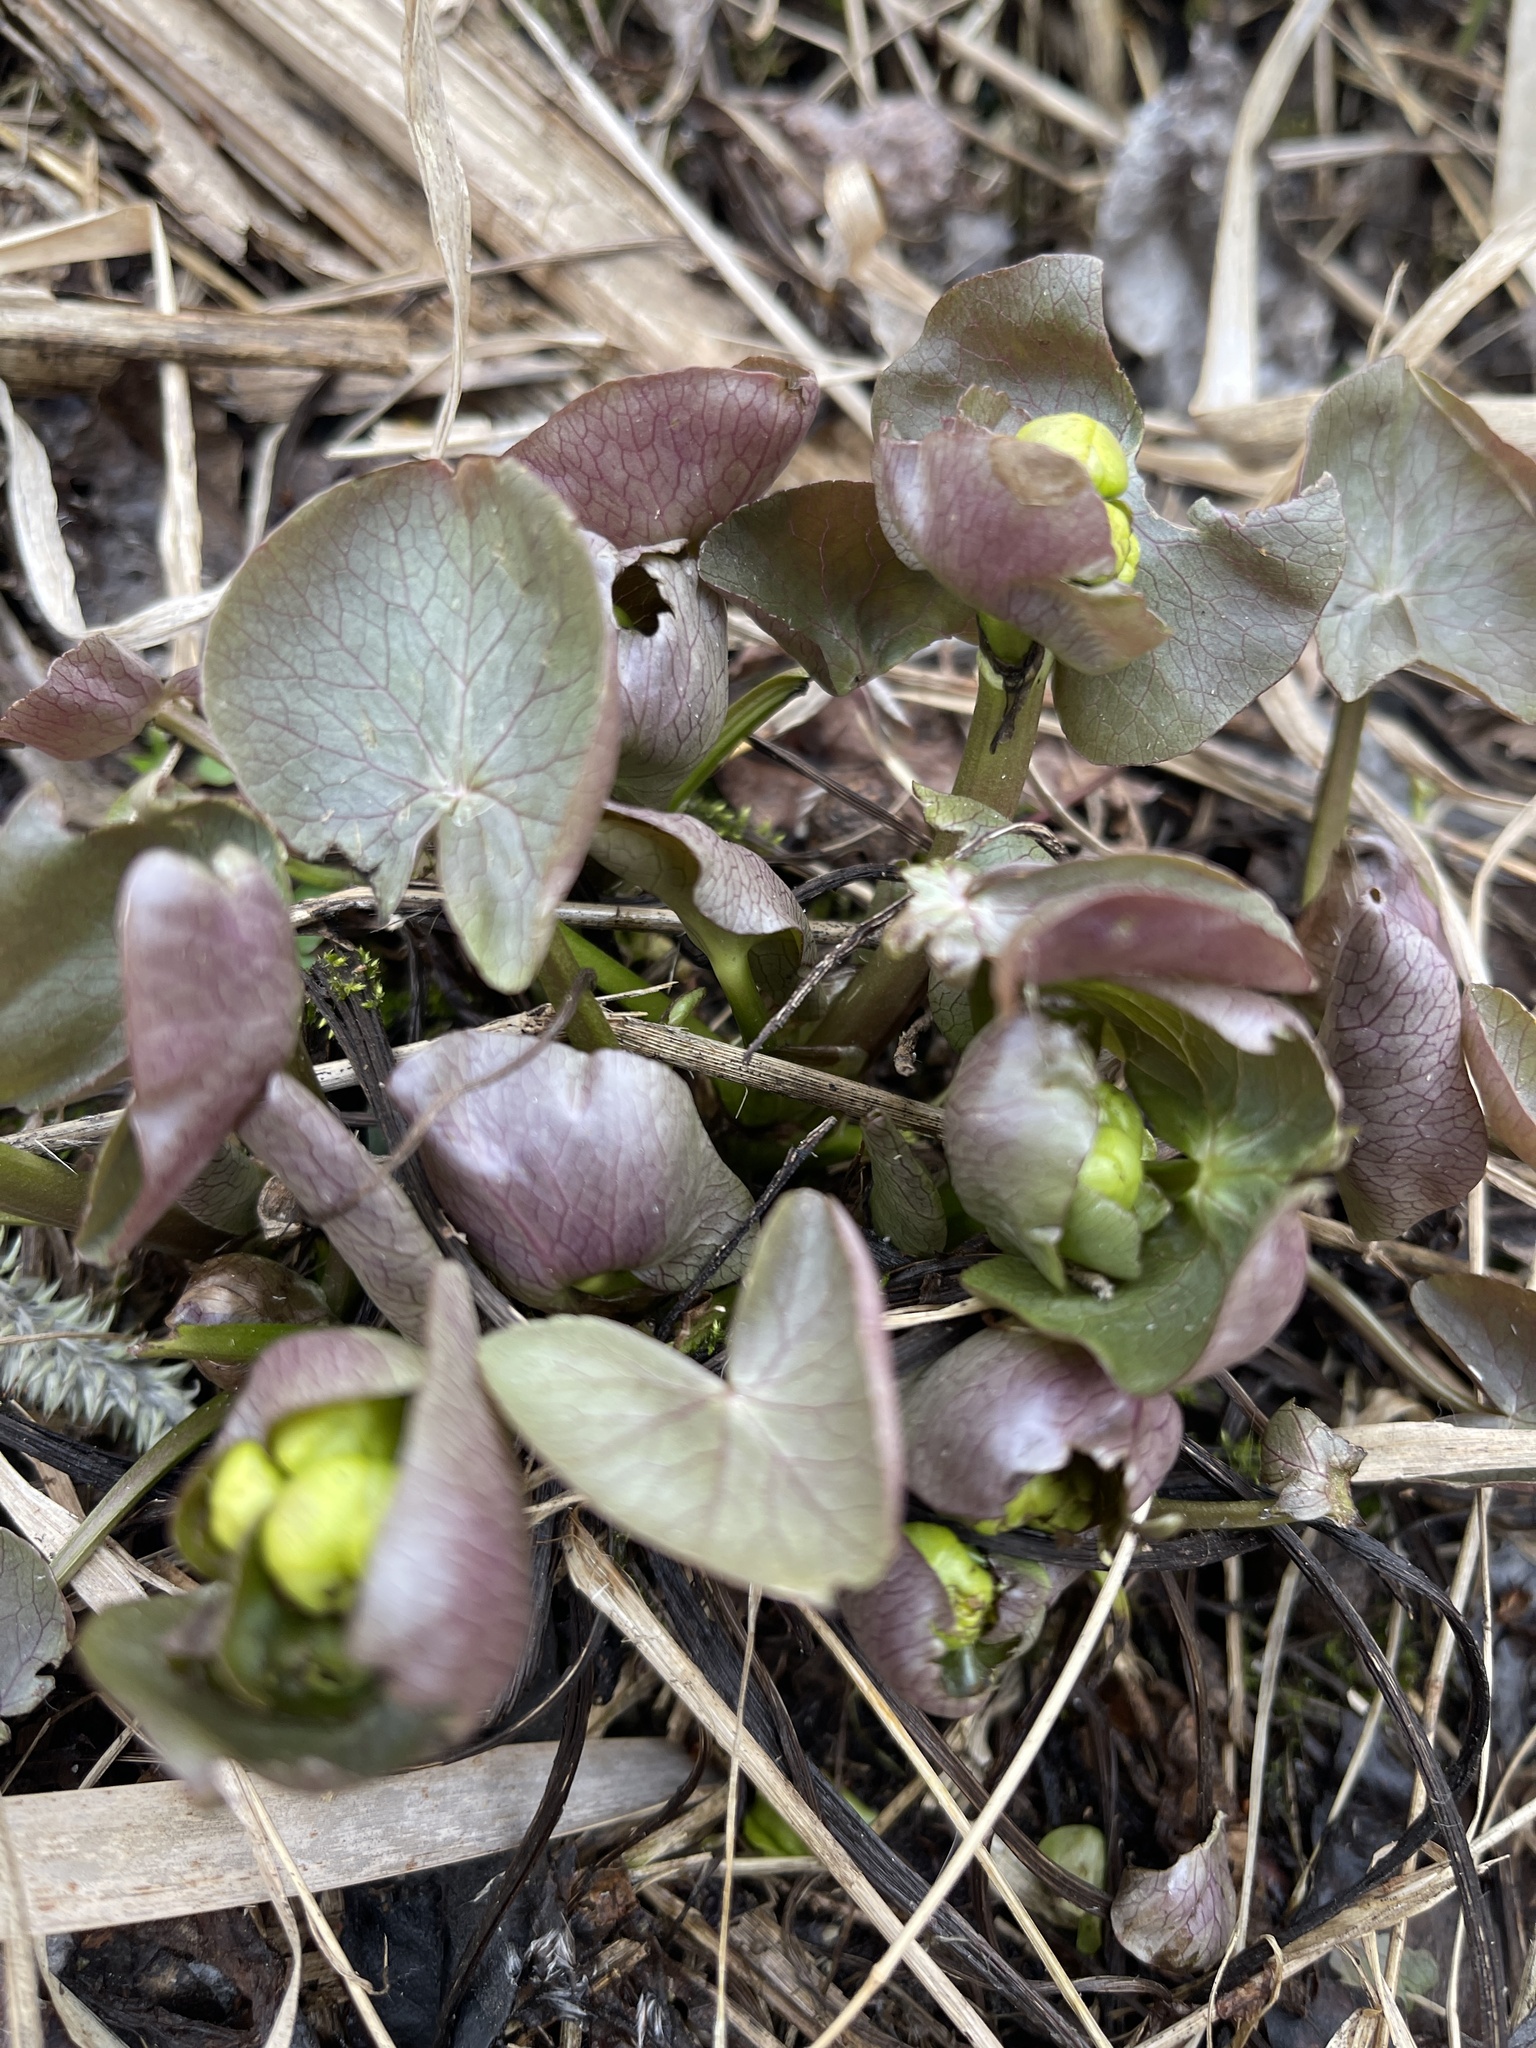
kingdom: Plantae
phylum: Tracheophyta
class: Magnoliopsida
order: Ranunculales
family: Ranunculaceae
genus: Caltha
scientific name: Caltha palustris
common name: Marsh marigold
